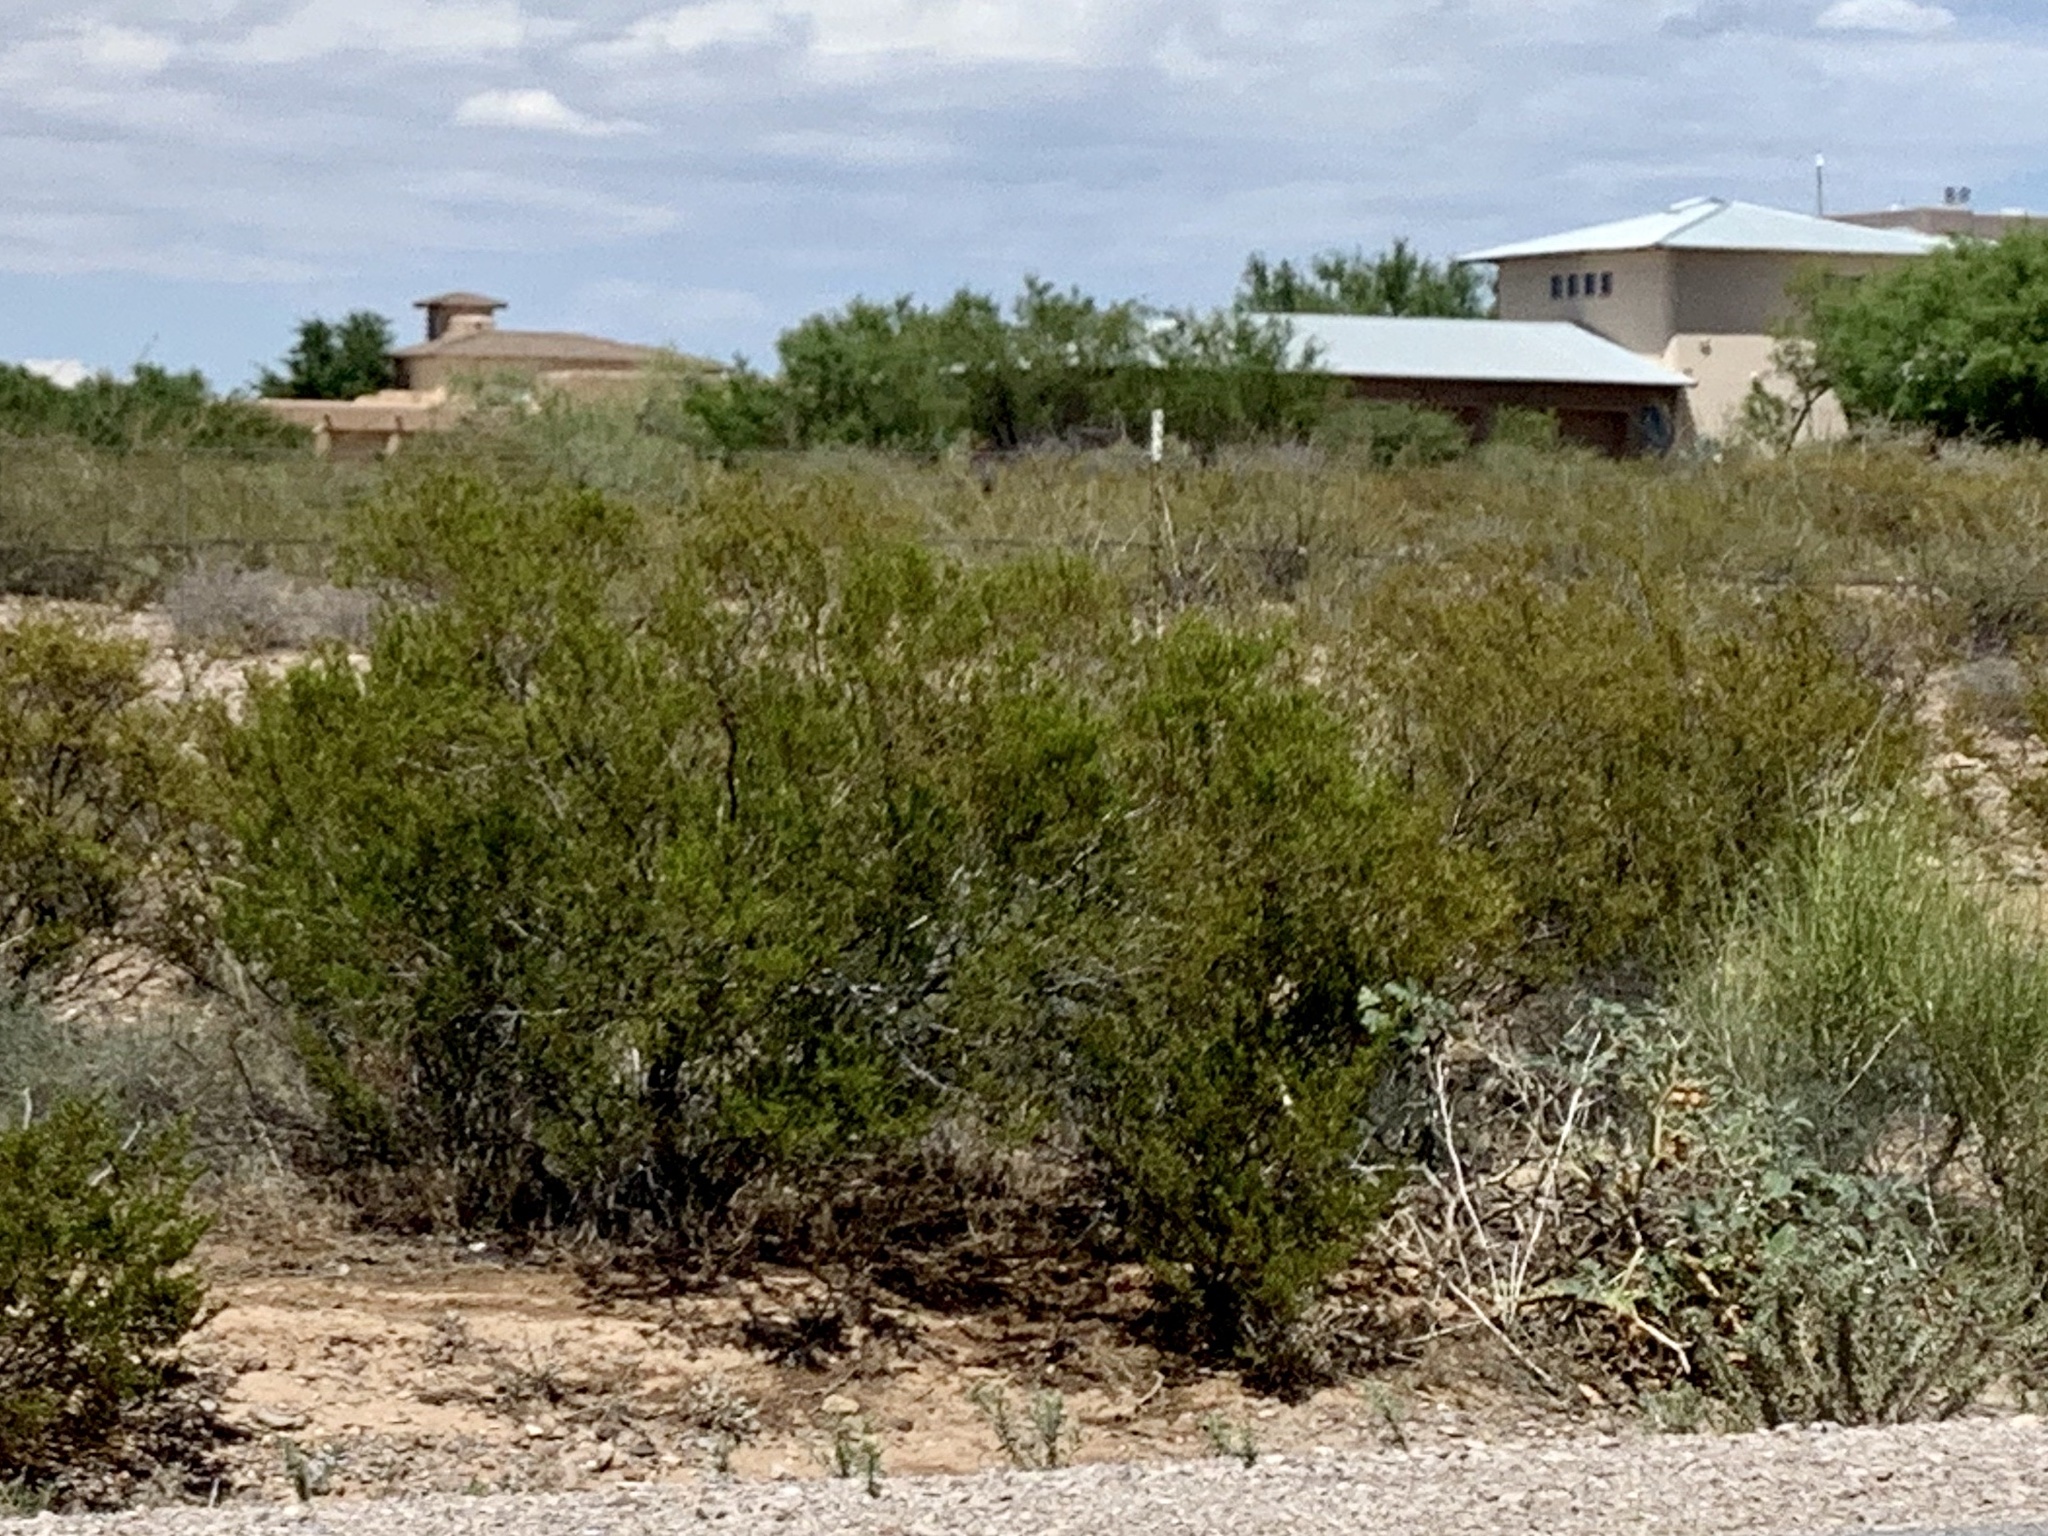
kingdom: Plantae
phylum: Tracheophyta
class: Magnoliopsida
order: Zygophyllales
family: Zygophyllaceae
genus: Larrea
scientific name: Larrea tridentata
